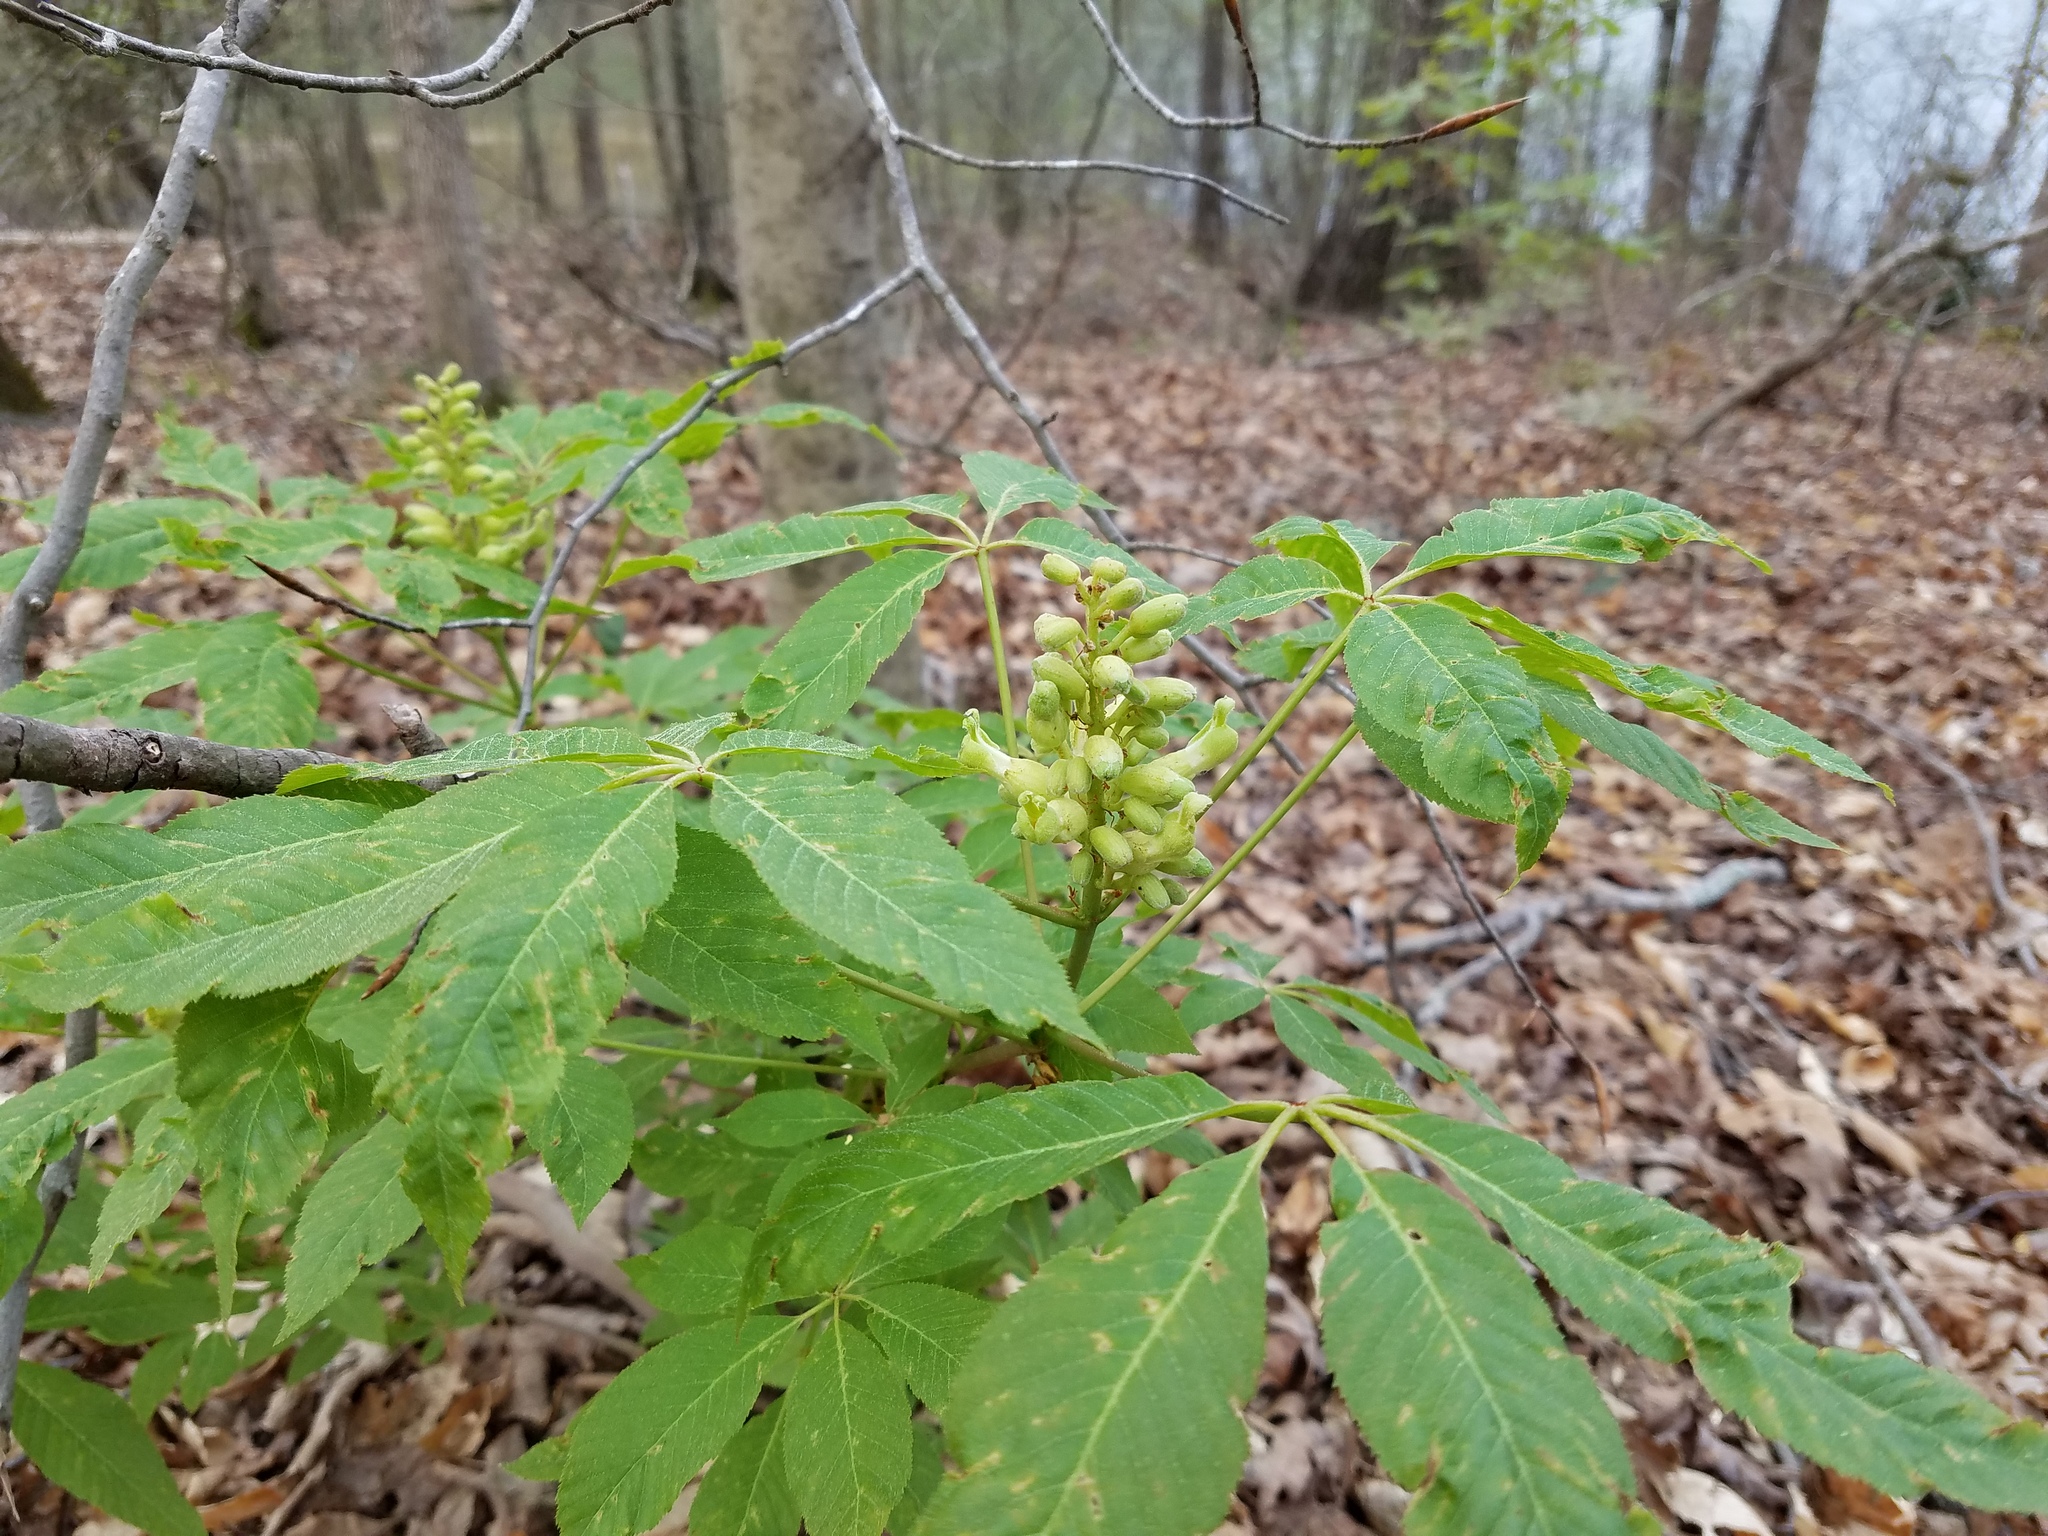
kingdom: Plantae
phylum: Tracheophyta
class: Magnoliopsida
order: Sapindales
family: Sapindaceae
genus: Aesculus
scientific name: Aesculus sylvatica
